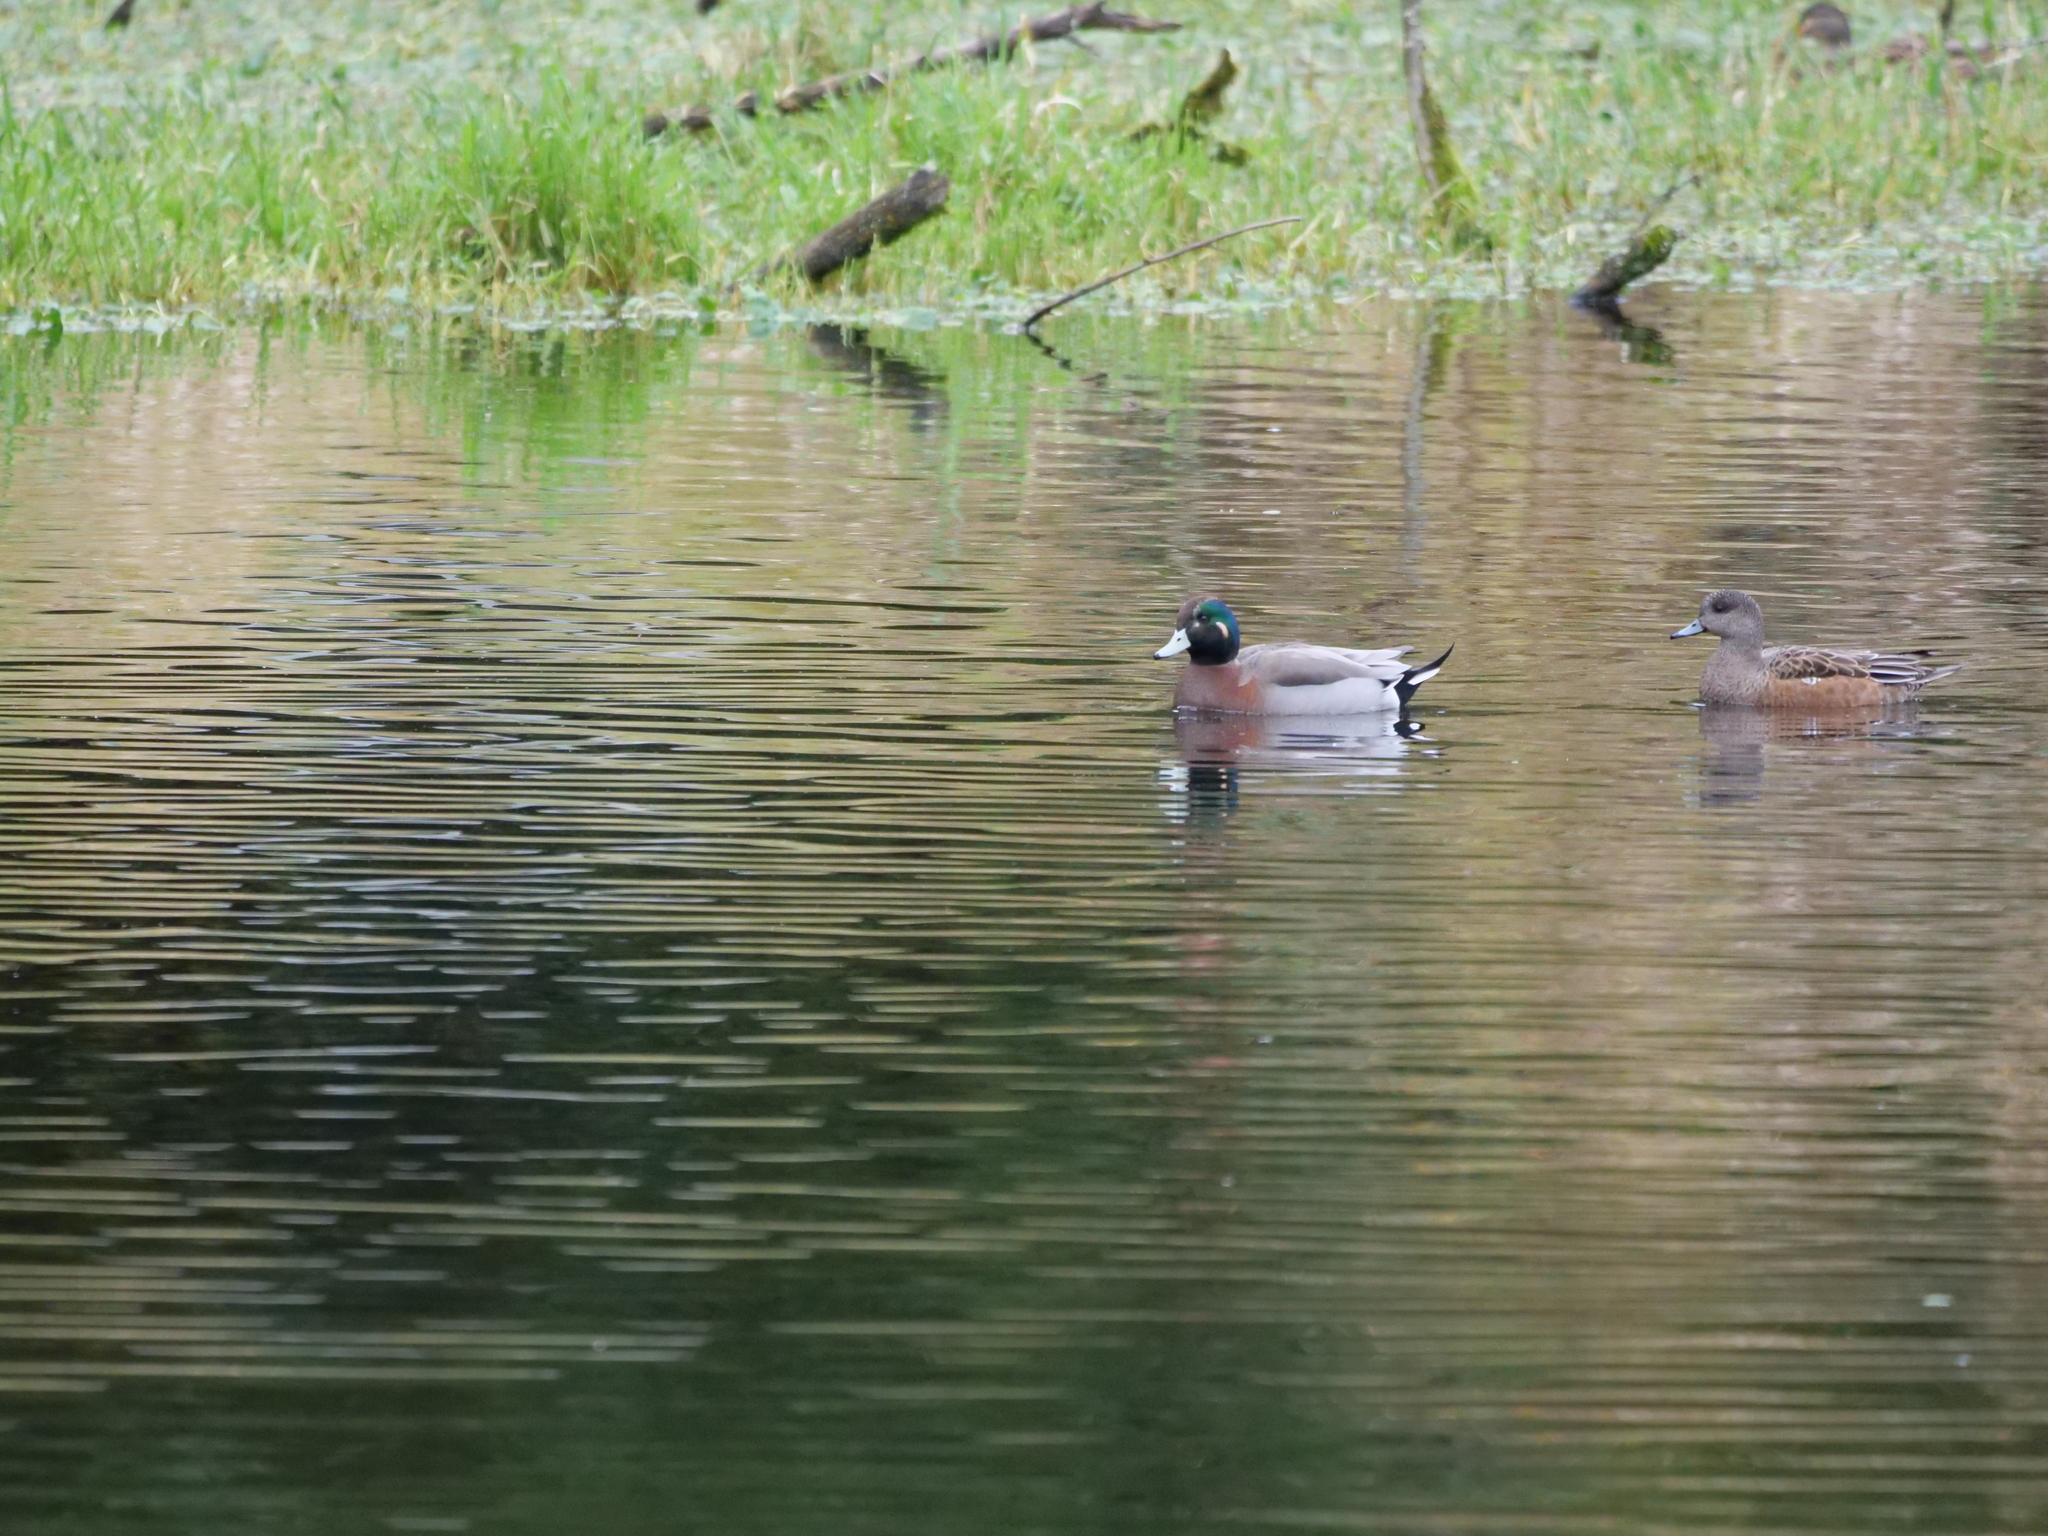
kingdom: Animalia
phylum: Chordata
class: Aves
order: Anseriformes
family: Anatidae
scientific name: Anatidae
